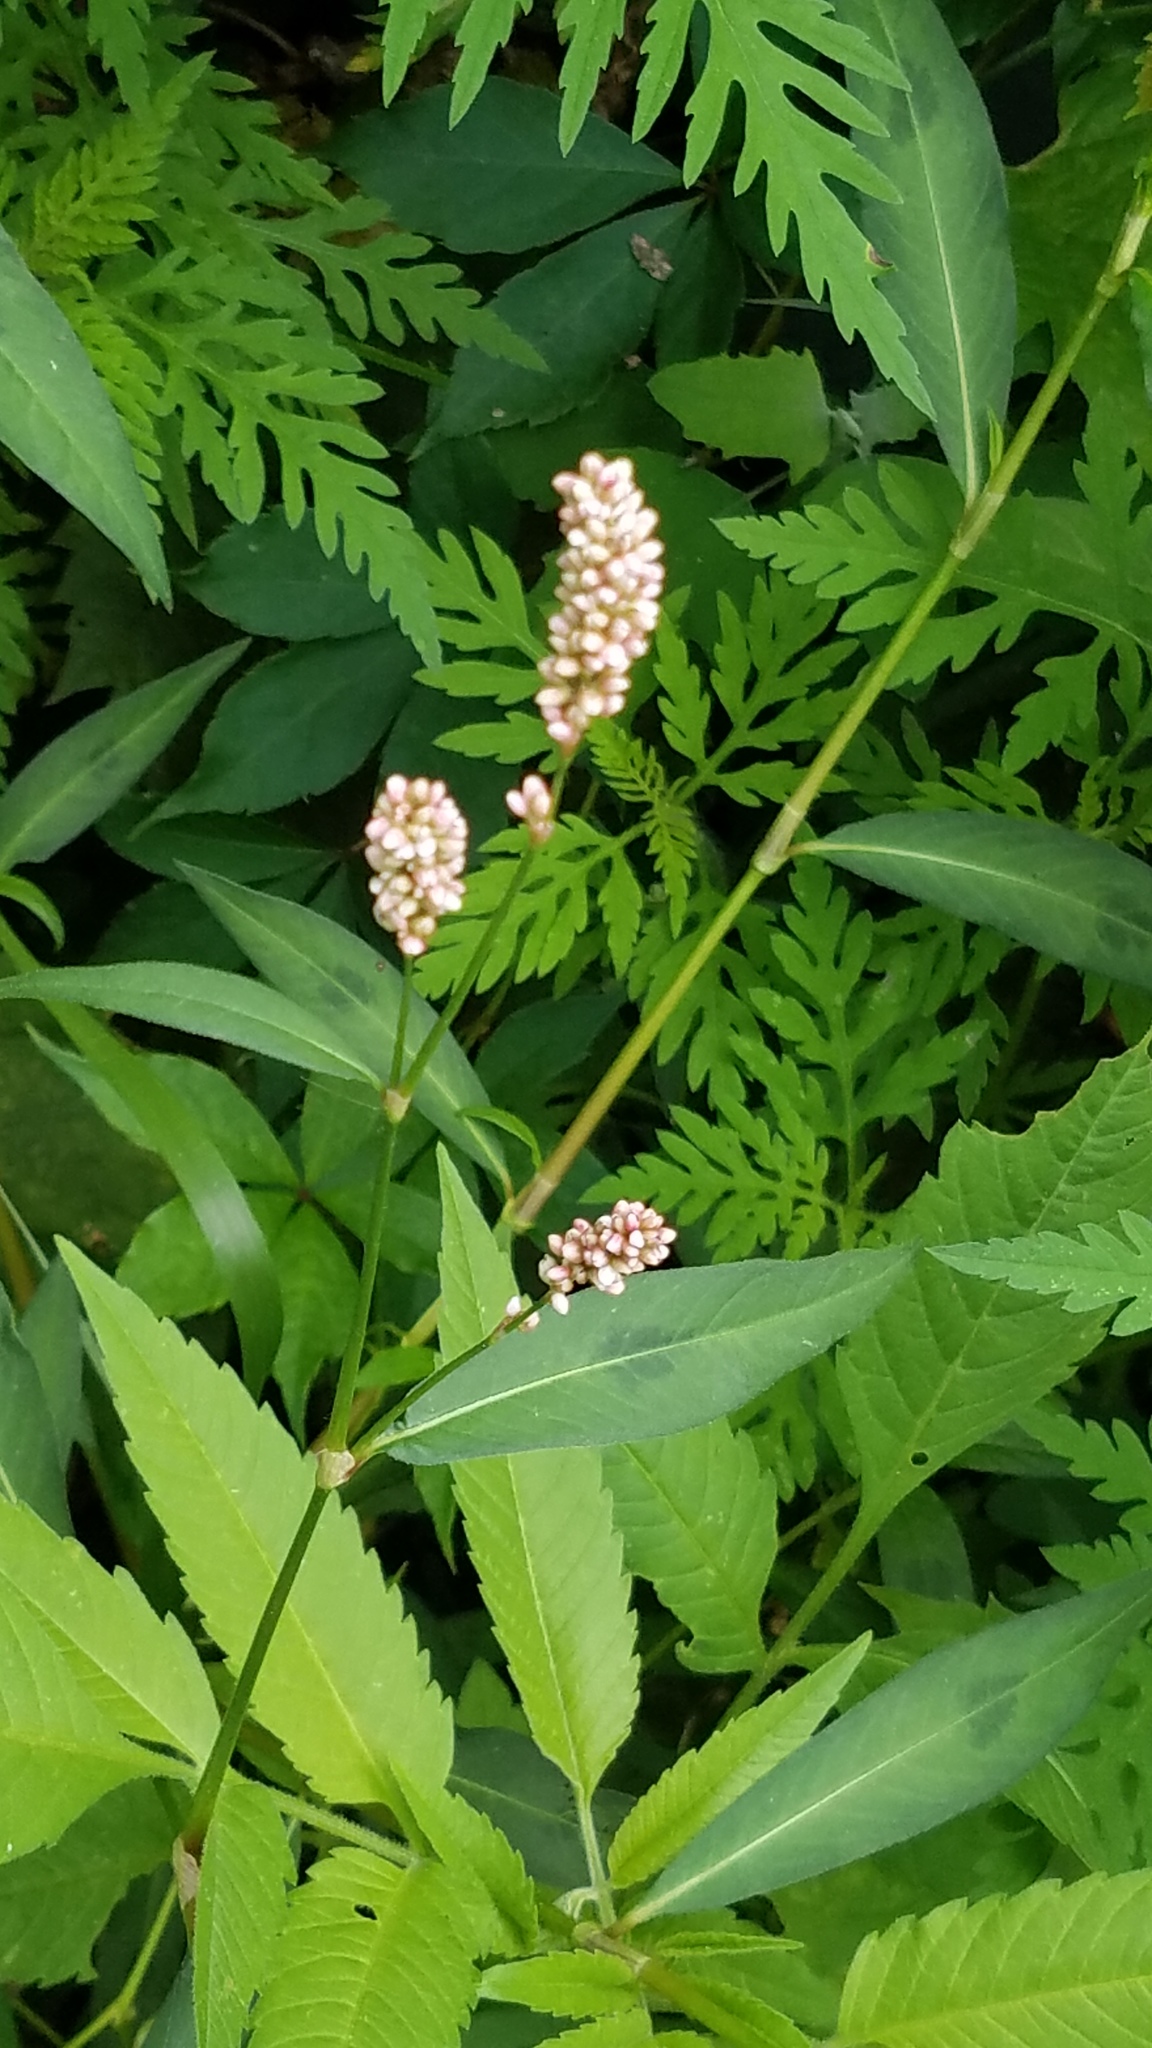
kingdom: Plantae
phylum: Tracheophyta
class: Magnoliopsida
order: Caryophyllales
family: Polygonaceae
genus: Persicaria
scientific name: Persicaria maculosa
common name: Redshank
